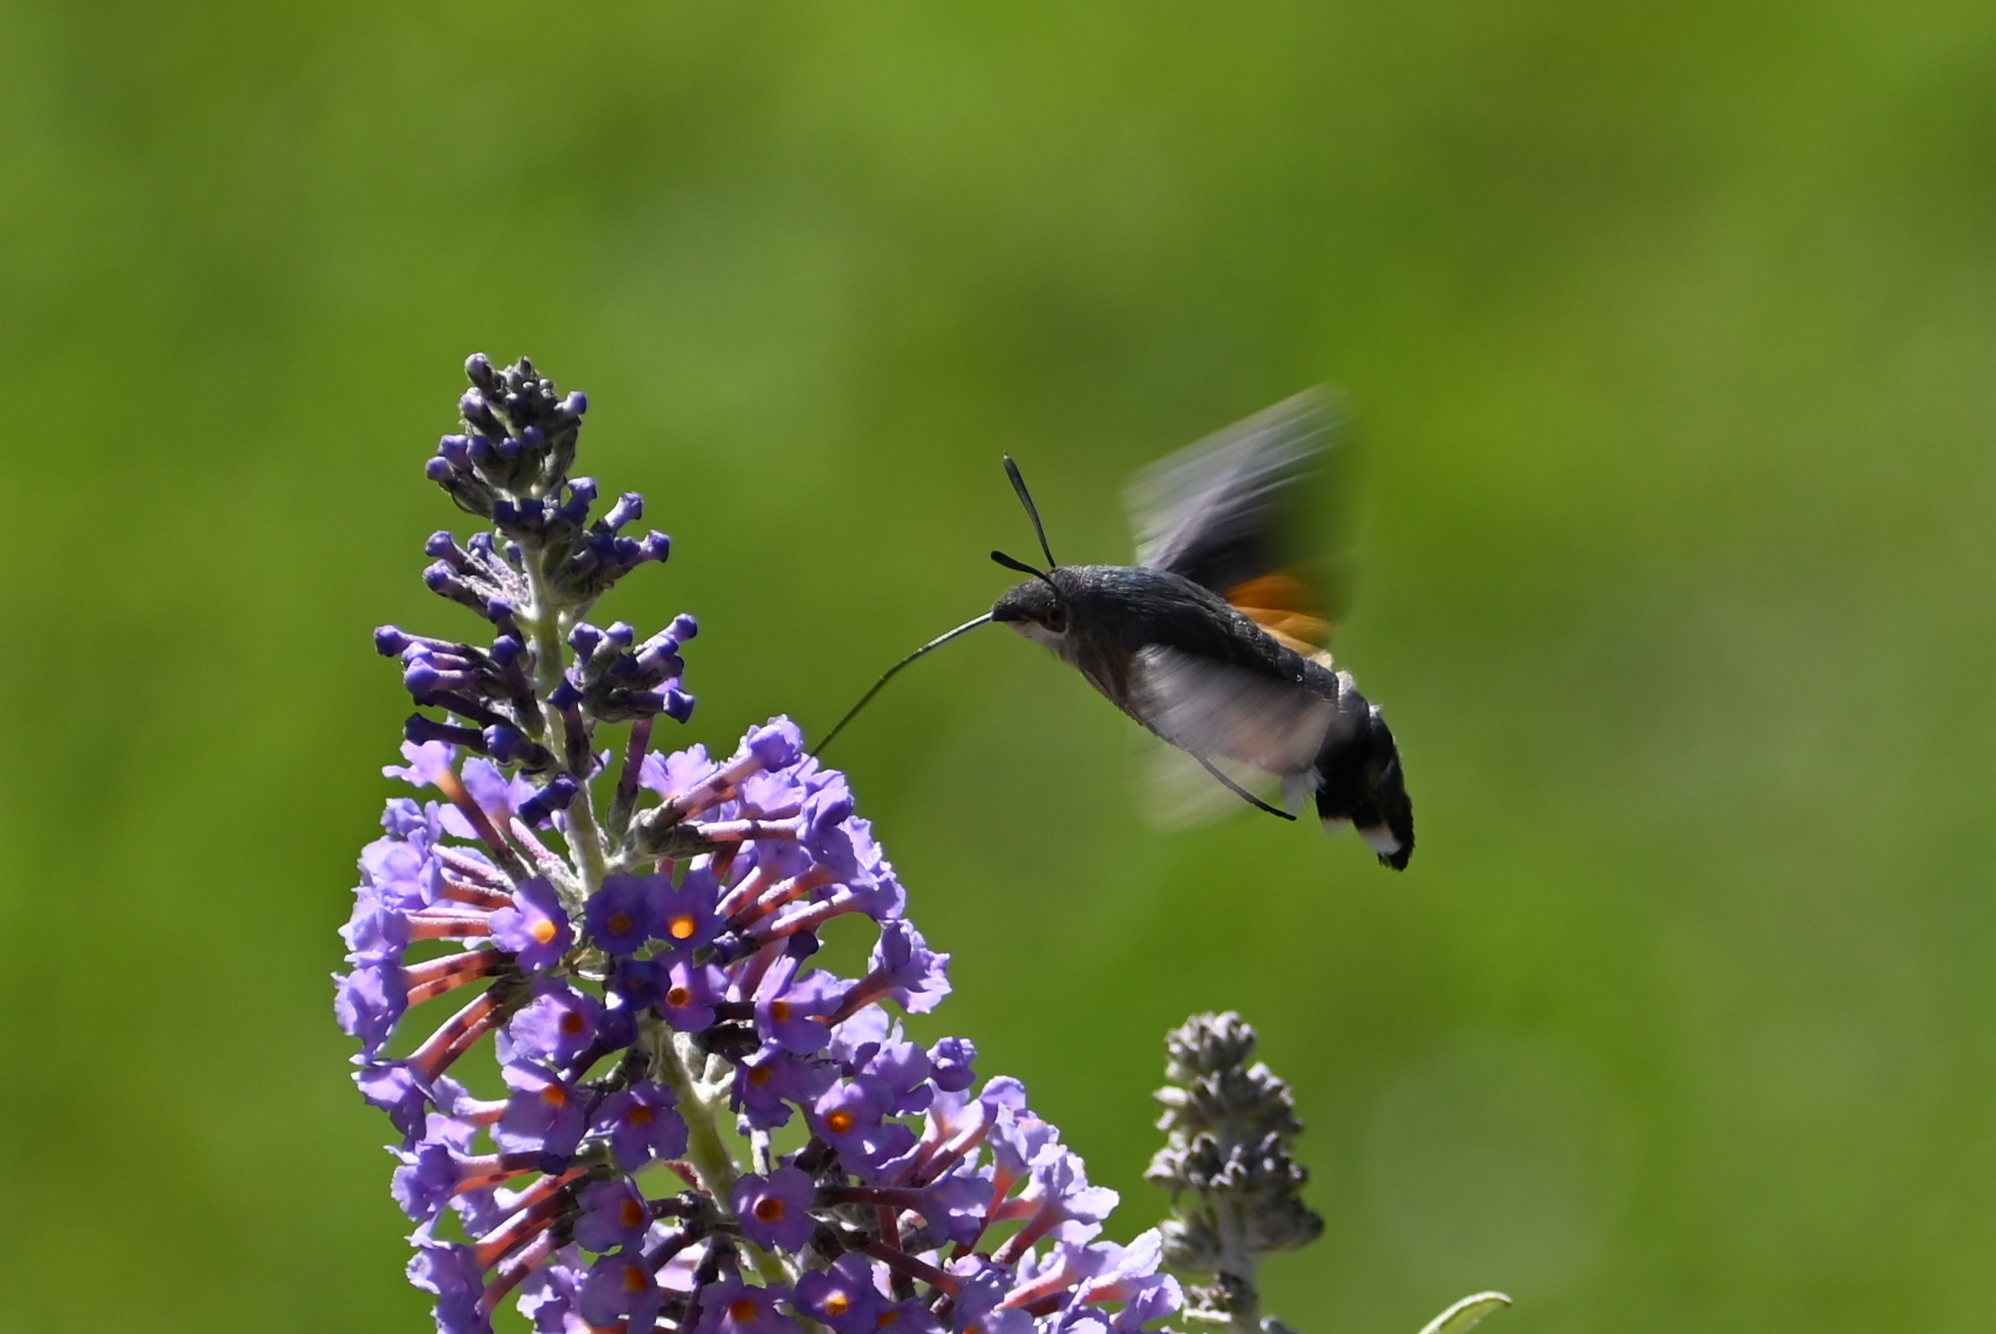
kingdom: Animalia
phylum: Arthropoda
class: Insecta
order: Lepidoptera
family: Sphingidae
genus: Macroglossum
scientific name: Macroglossum stellatarum
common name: Humming-bird hawk-moth
